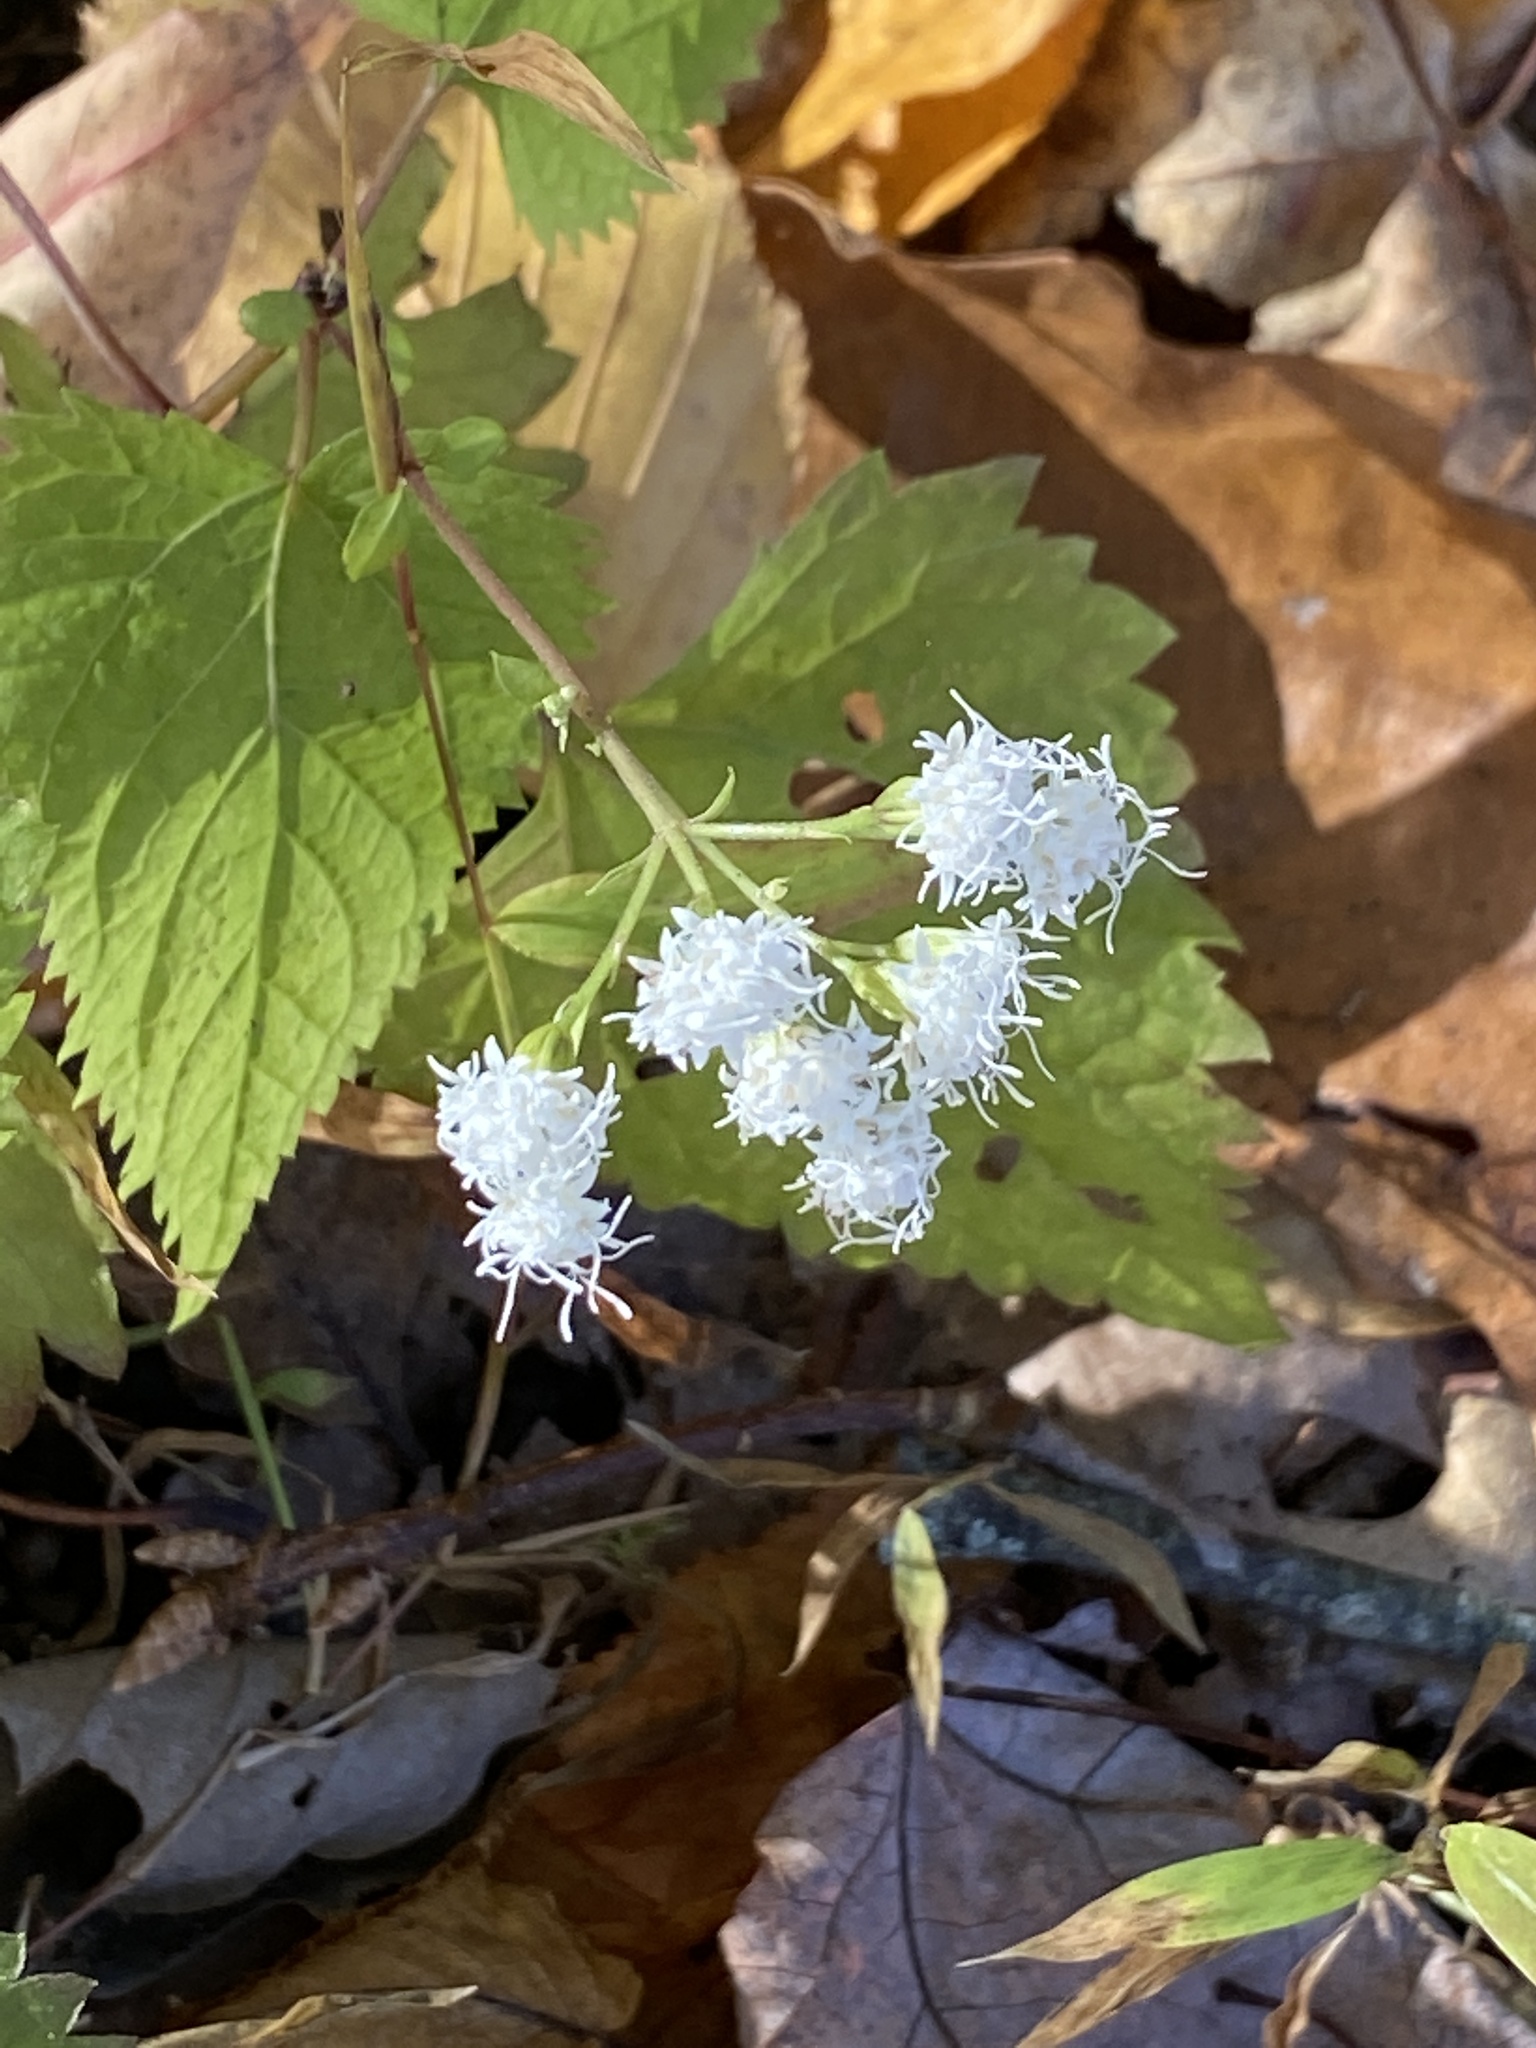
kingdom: Plantae
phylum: Tracheophyta
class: Magnoliopsida
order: Asterales
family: Asteraceae
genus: Ageratina
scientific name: Ageratina altissima
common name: White snakeroot
